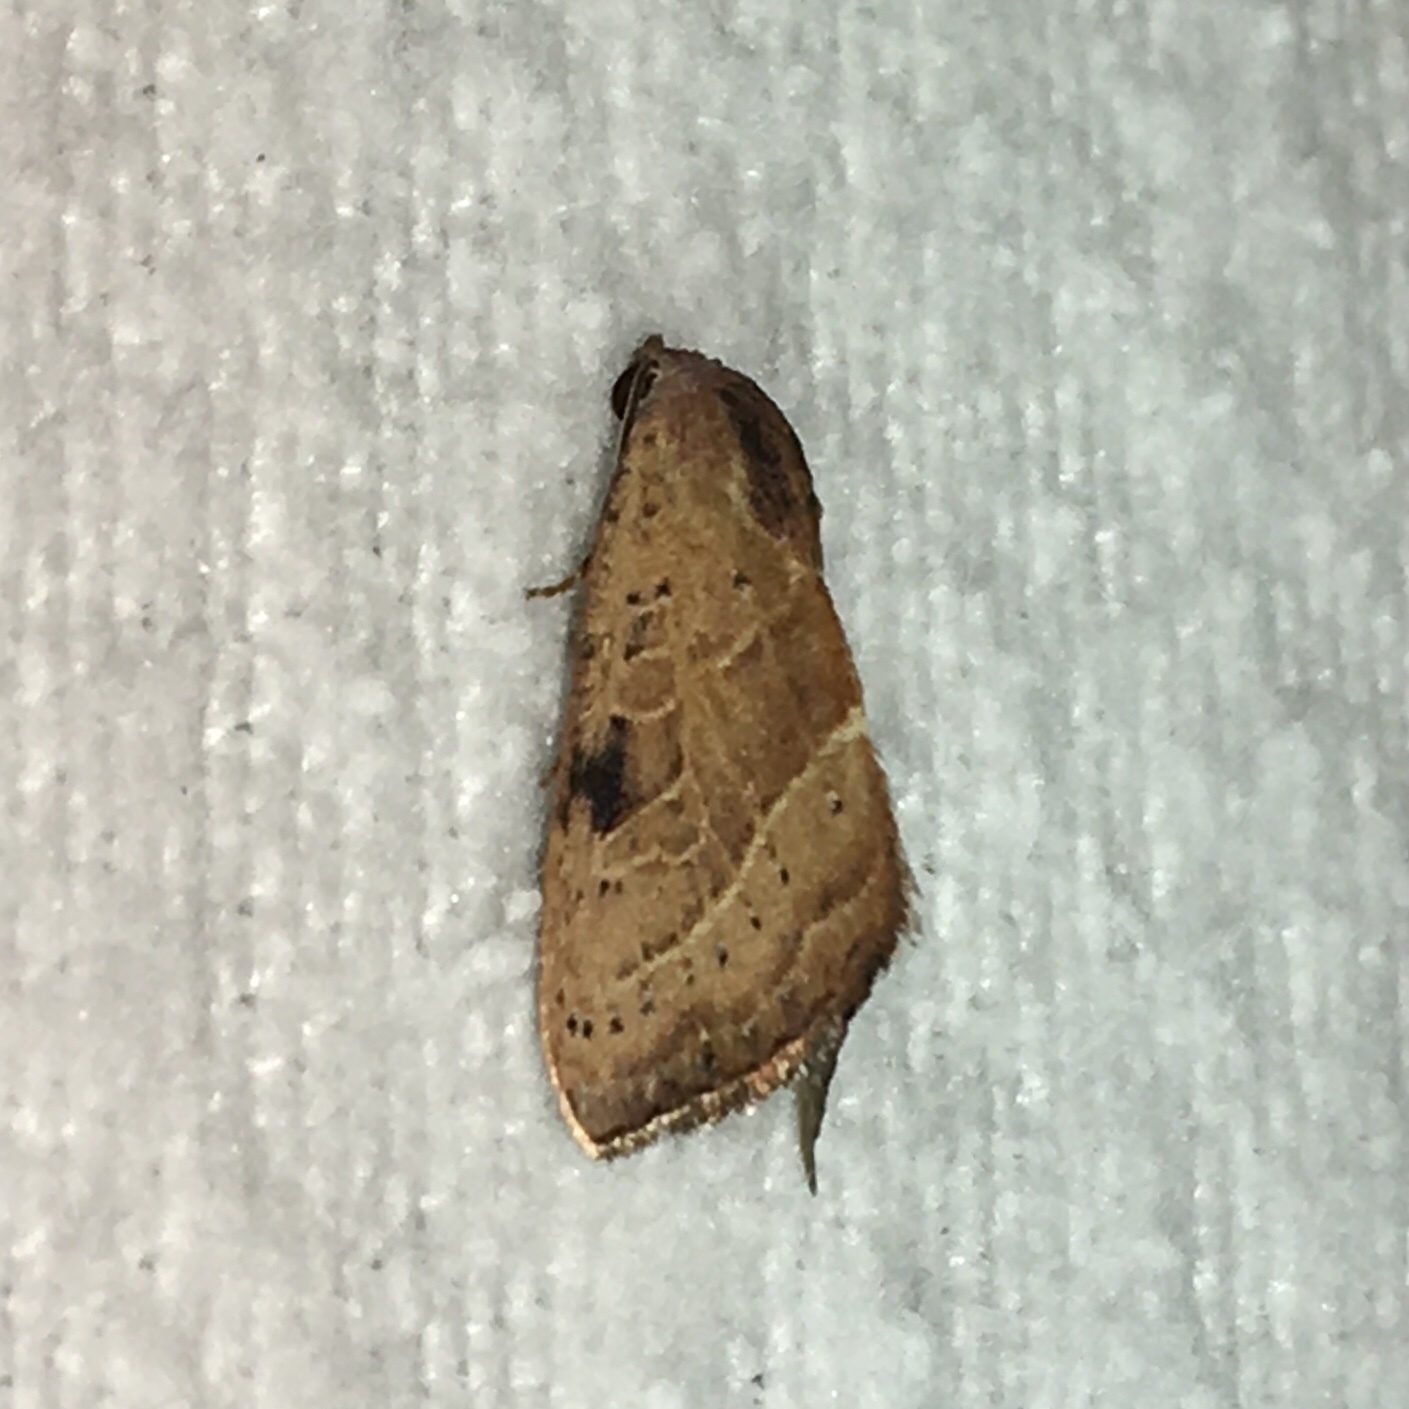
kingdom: Animalia
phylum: Arthropoda
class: Insecta
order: Lepidoptera
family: Noctuidae
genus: Galgula
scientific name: Galgula partita
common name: Wedgeling
